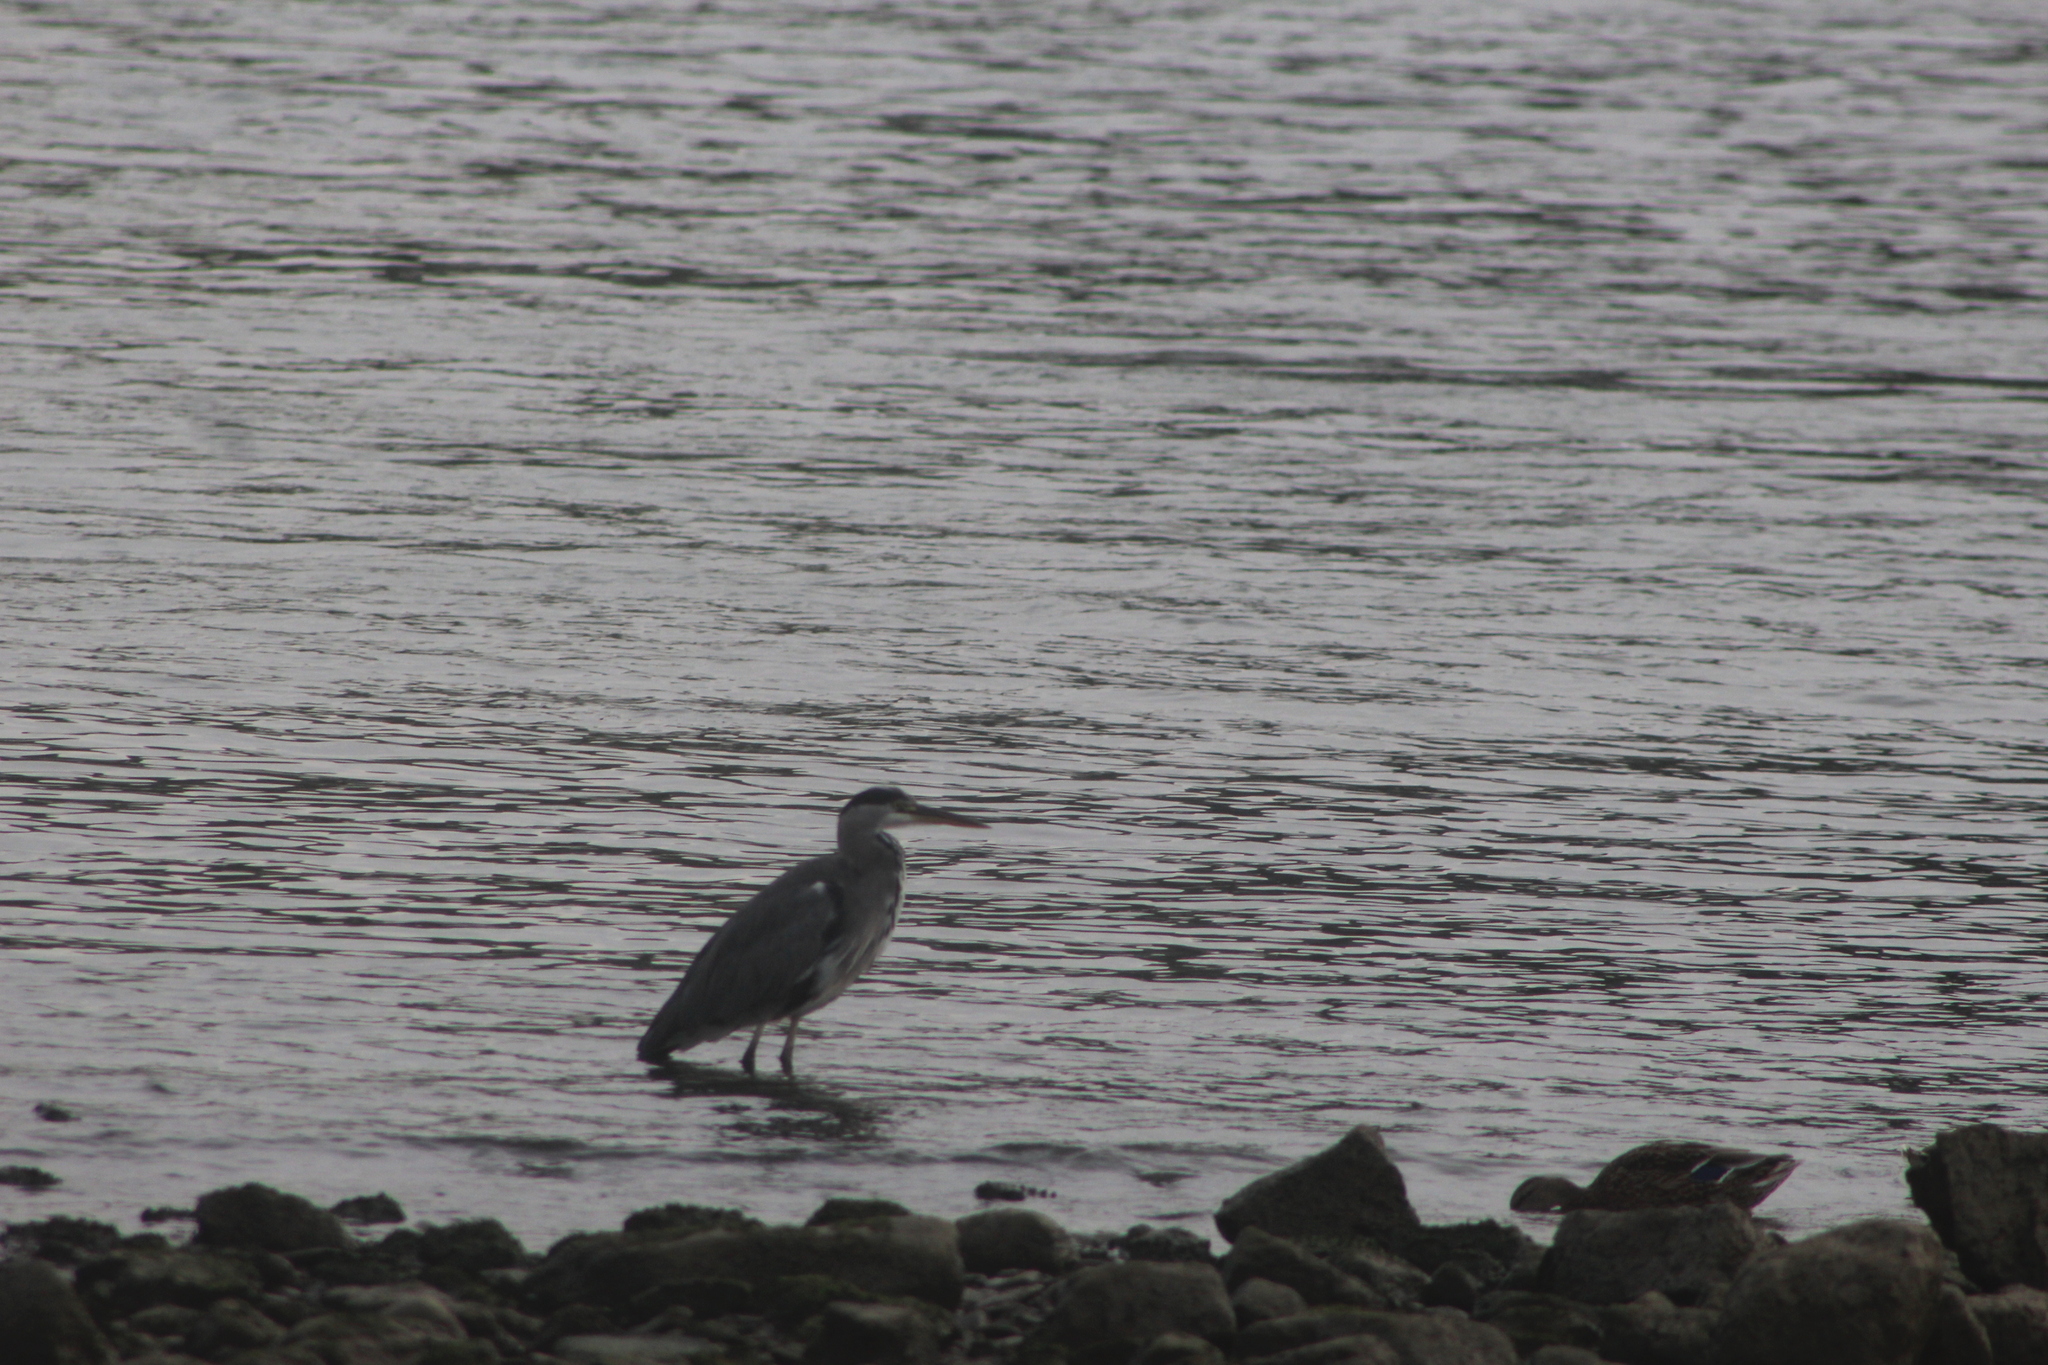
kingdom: Animalia
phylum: Chordata
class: Aves
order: Pelecaniformes
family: Ardeidae
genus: Ardea
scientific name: Ardea cinerea
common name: Grey heron
